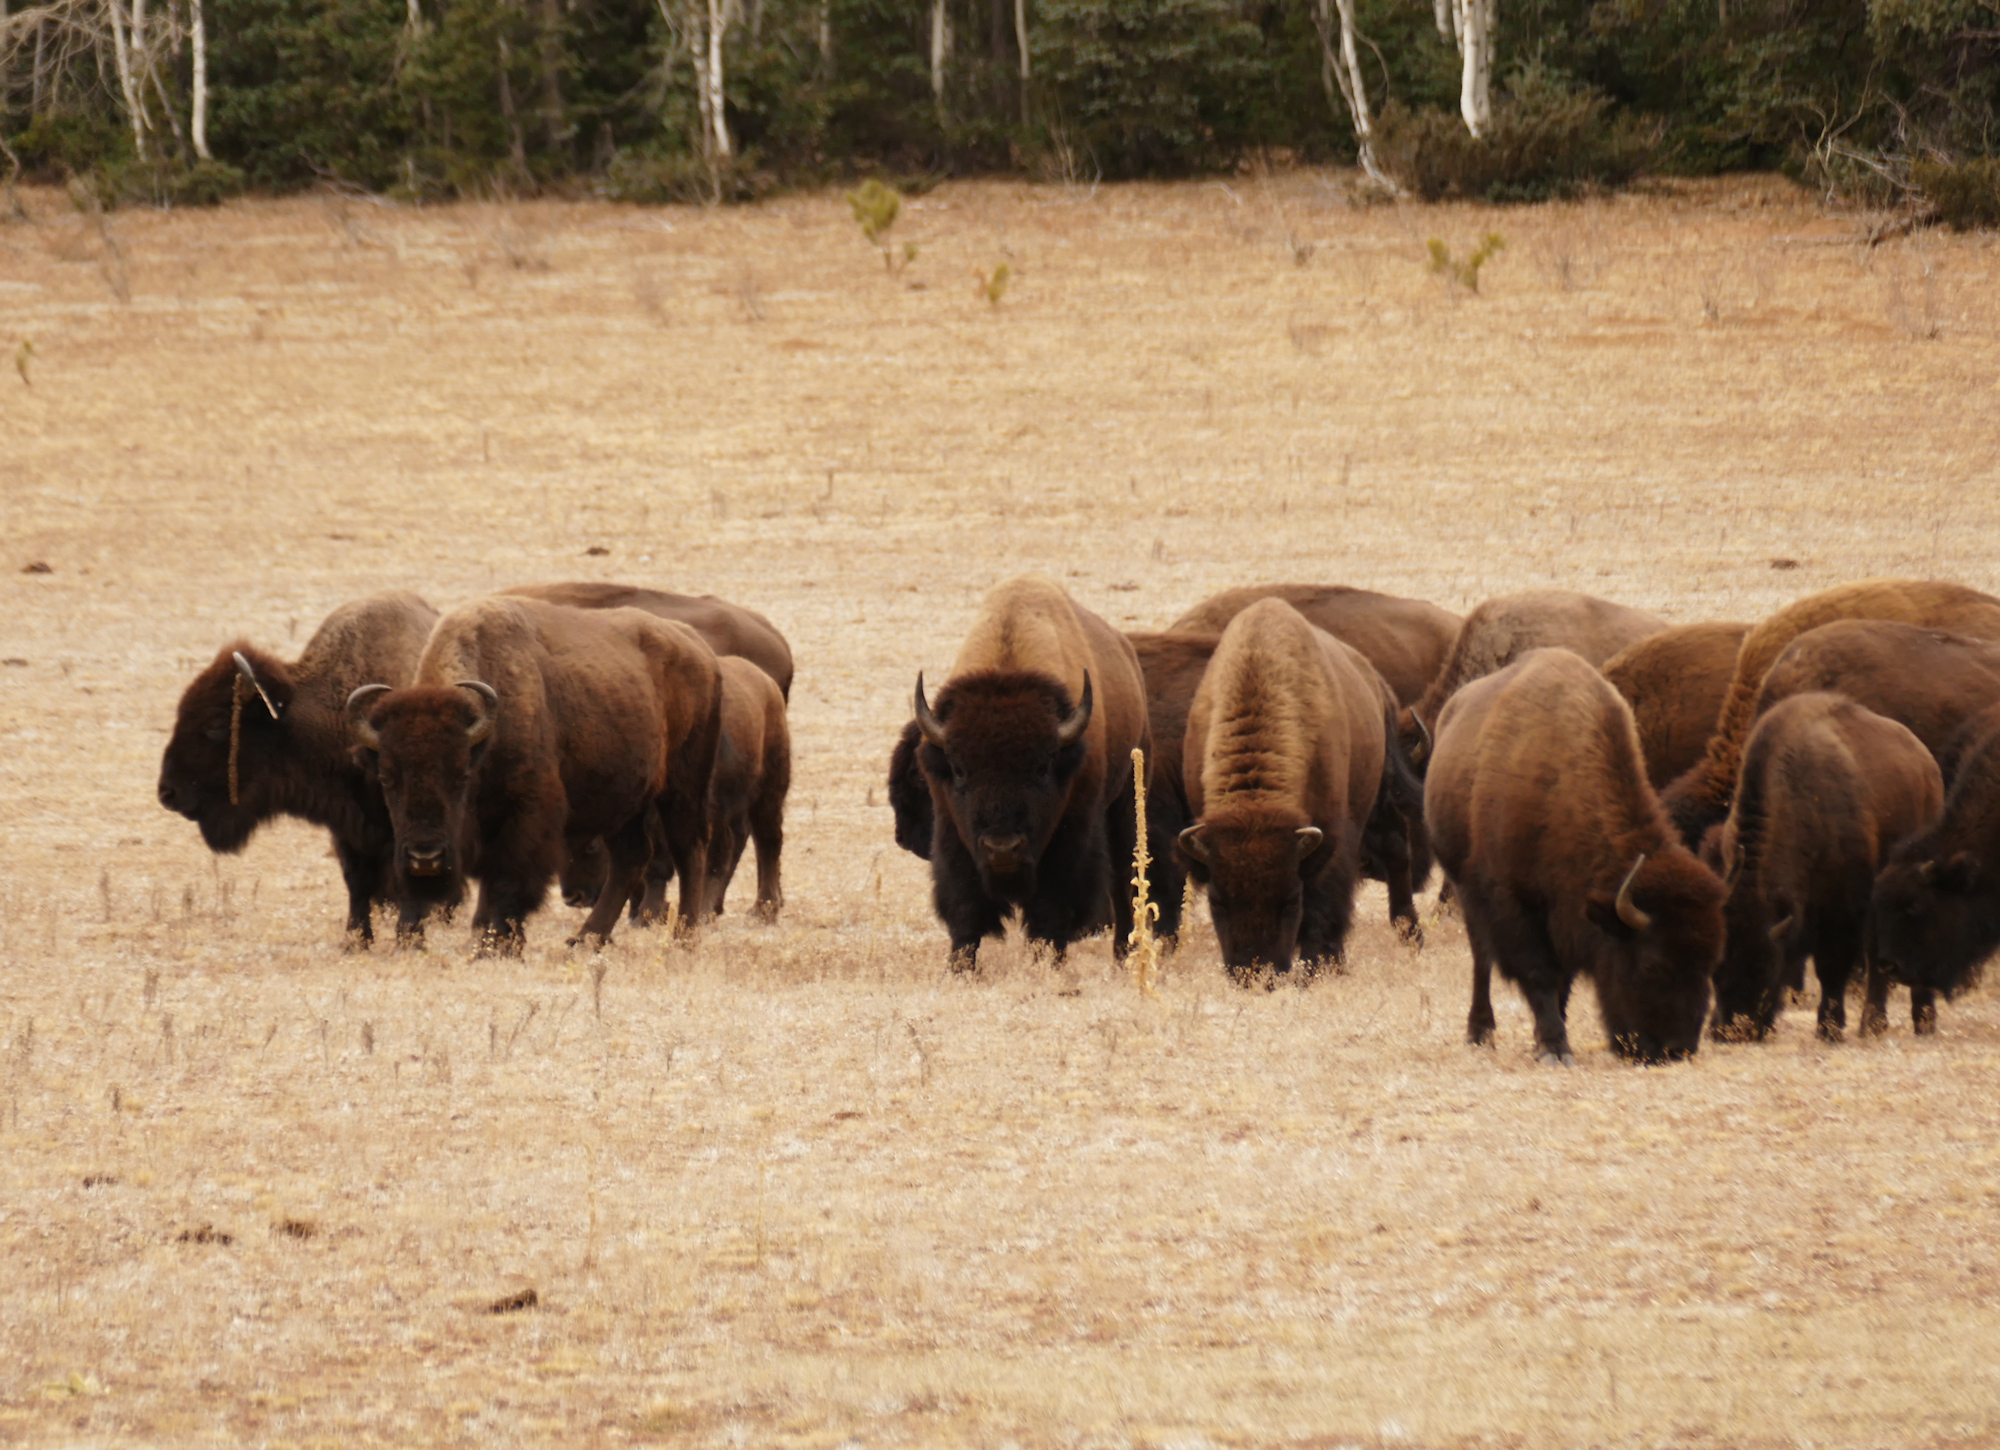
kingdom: Animalia
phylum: Chordata
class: Mammalia
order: Artiodactyla
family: Bovidae
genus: Bison
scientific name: Bison bison
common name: American bison
